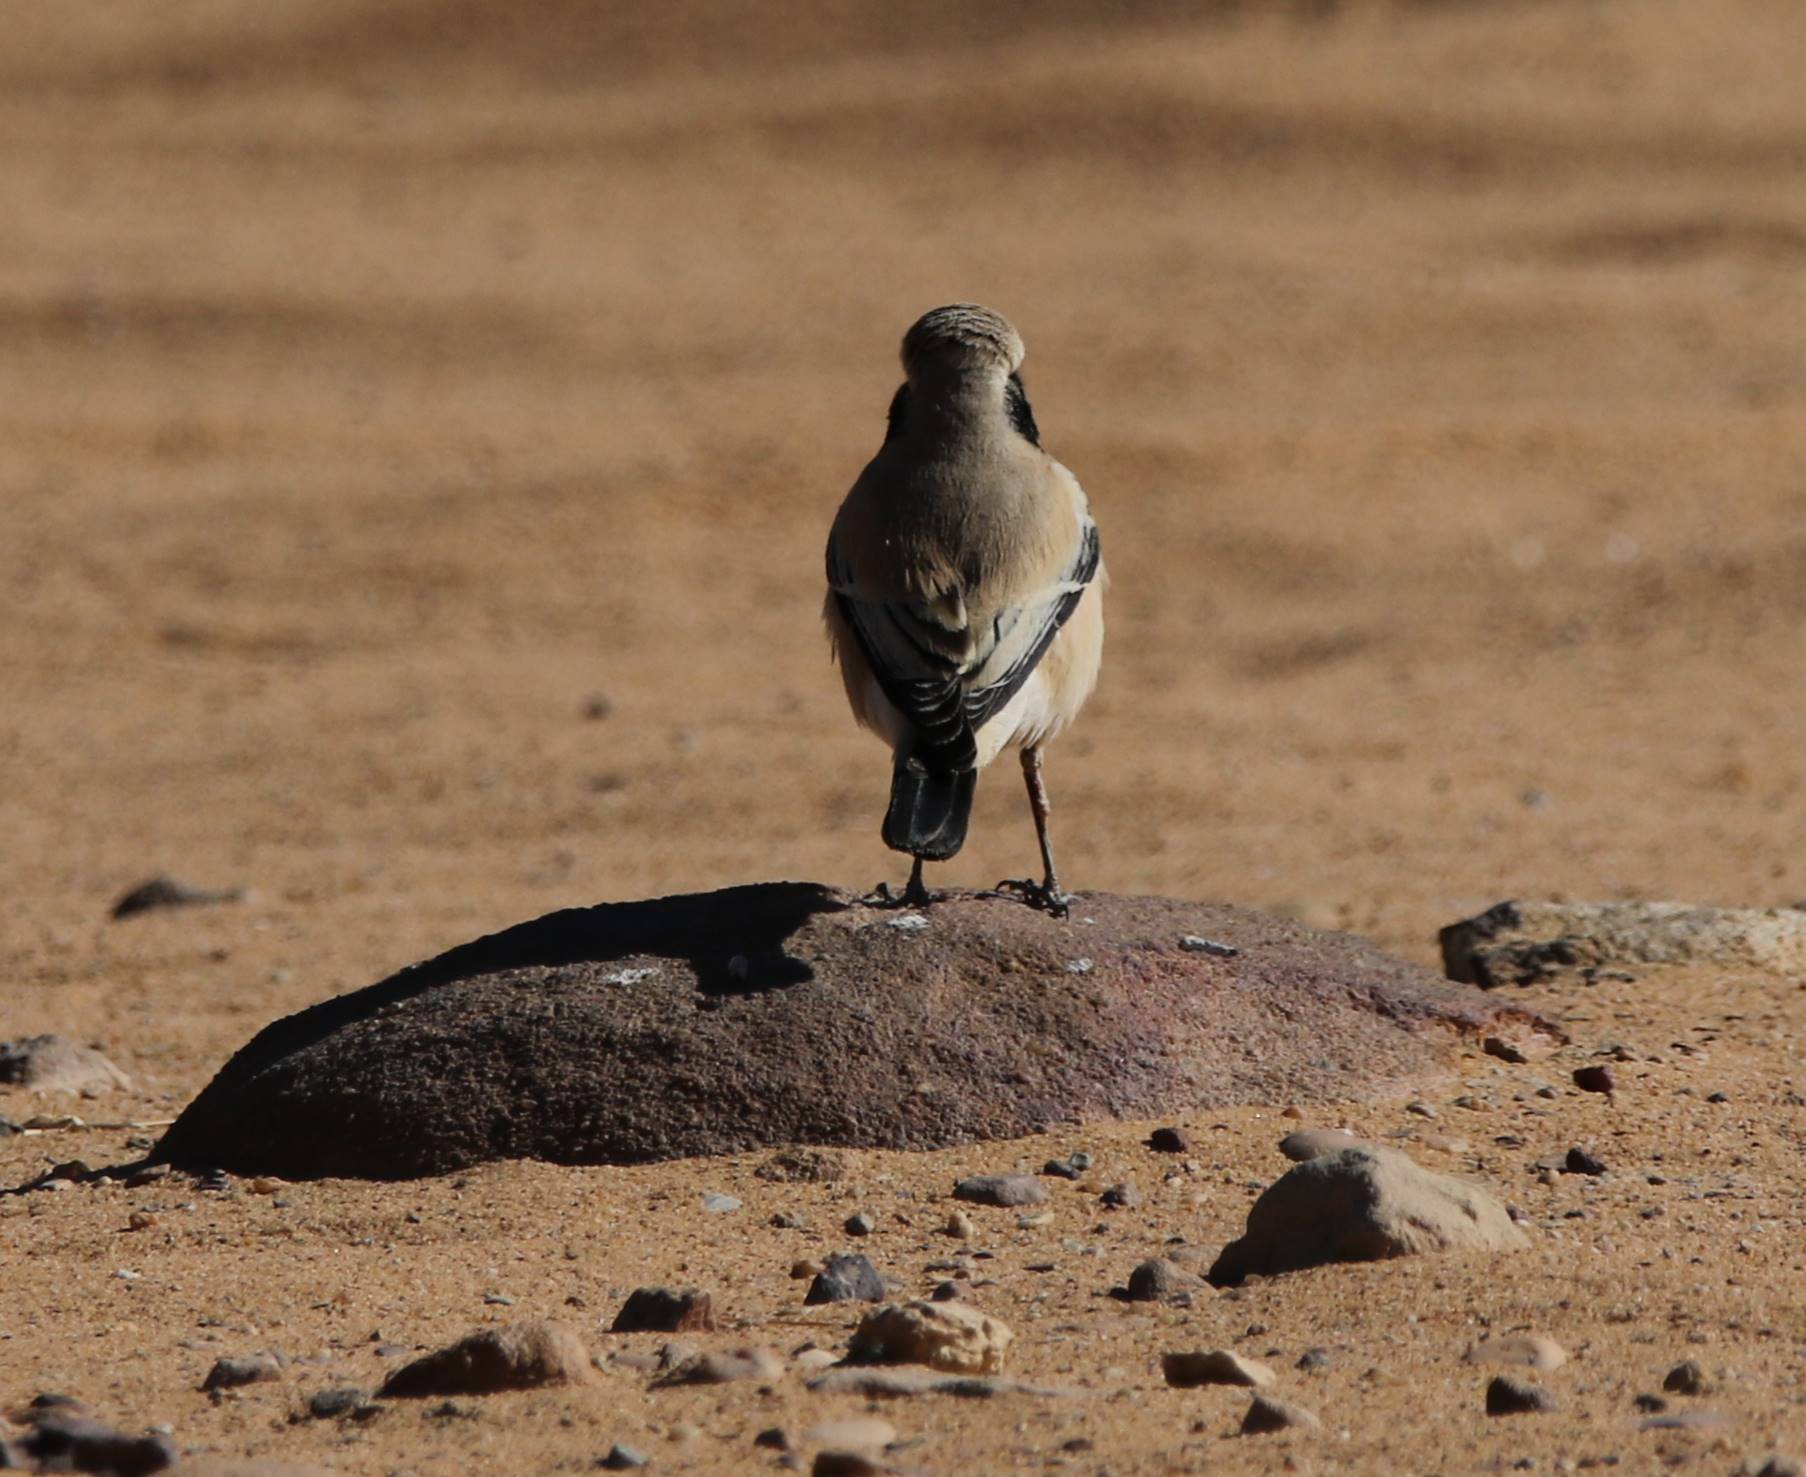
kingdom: Animalia
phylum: Chordata
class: Aves
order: Passeriformes
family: Muscicapidae
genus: Oenanthe
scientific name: Oenanthe deserti
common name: Desert wheatear
